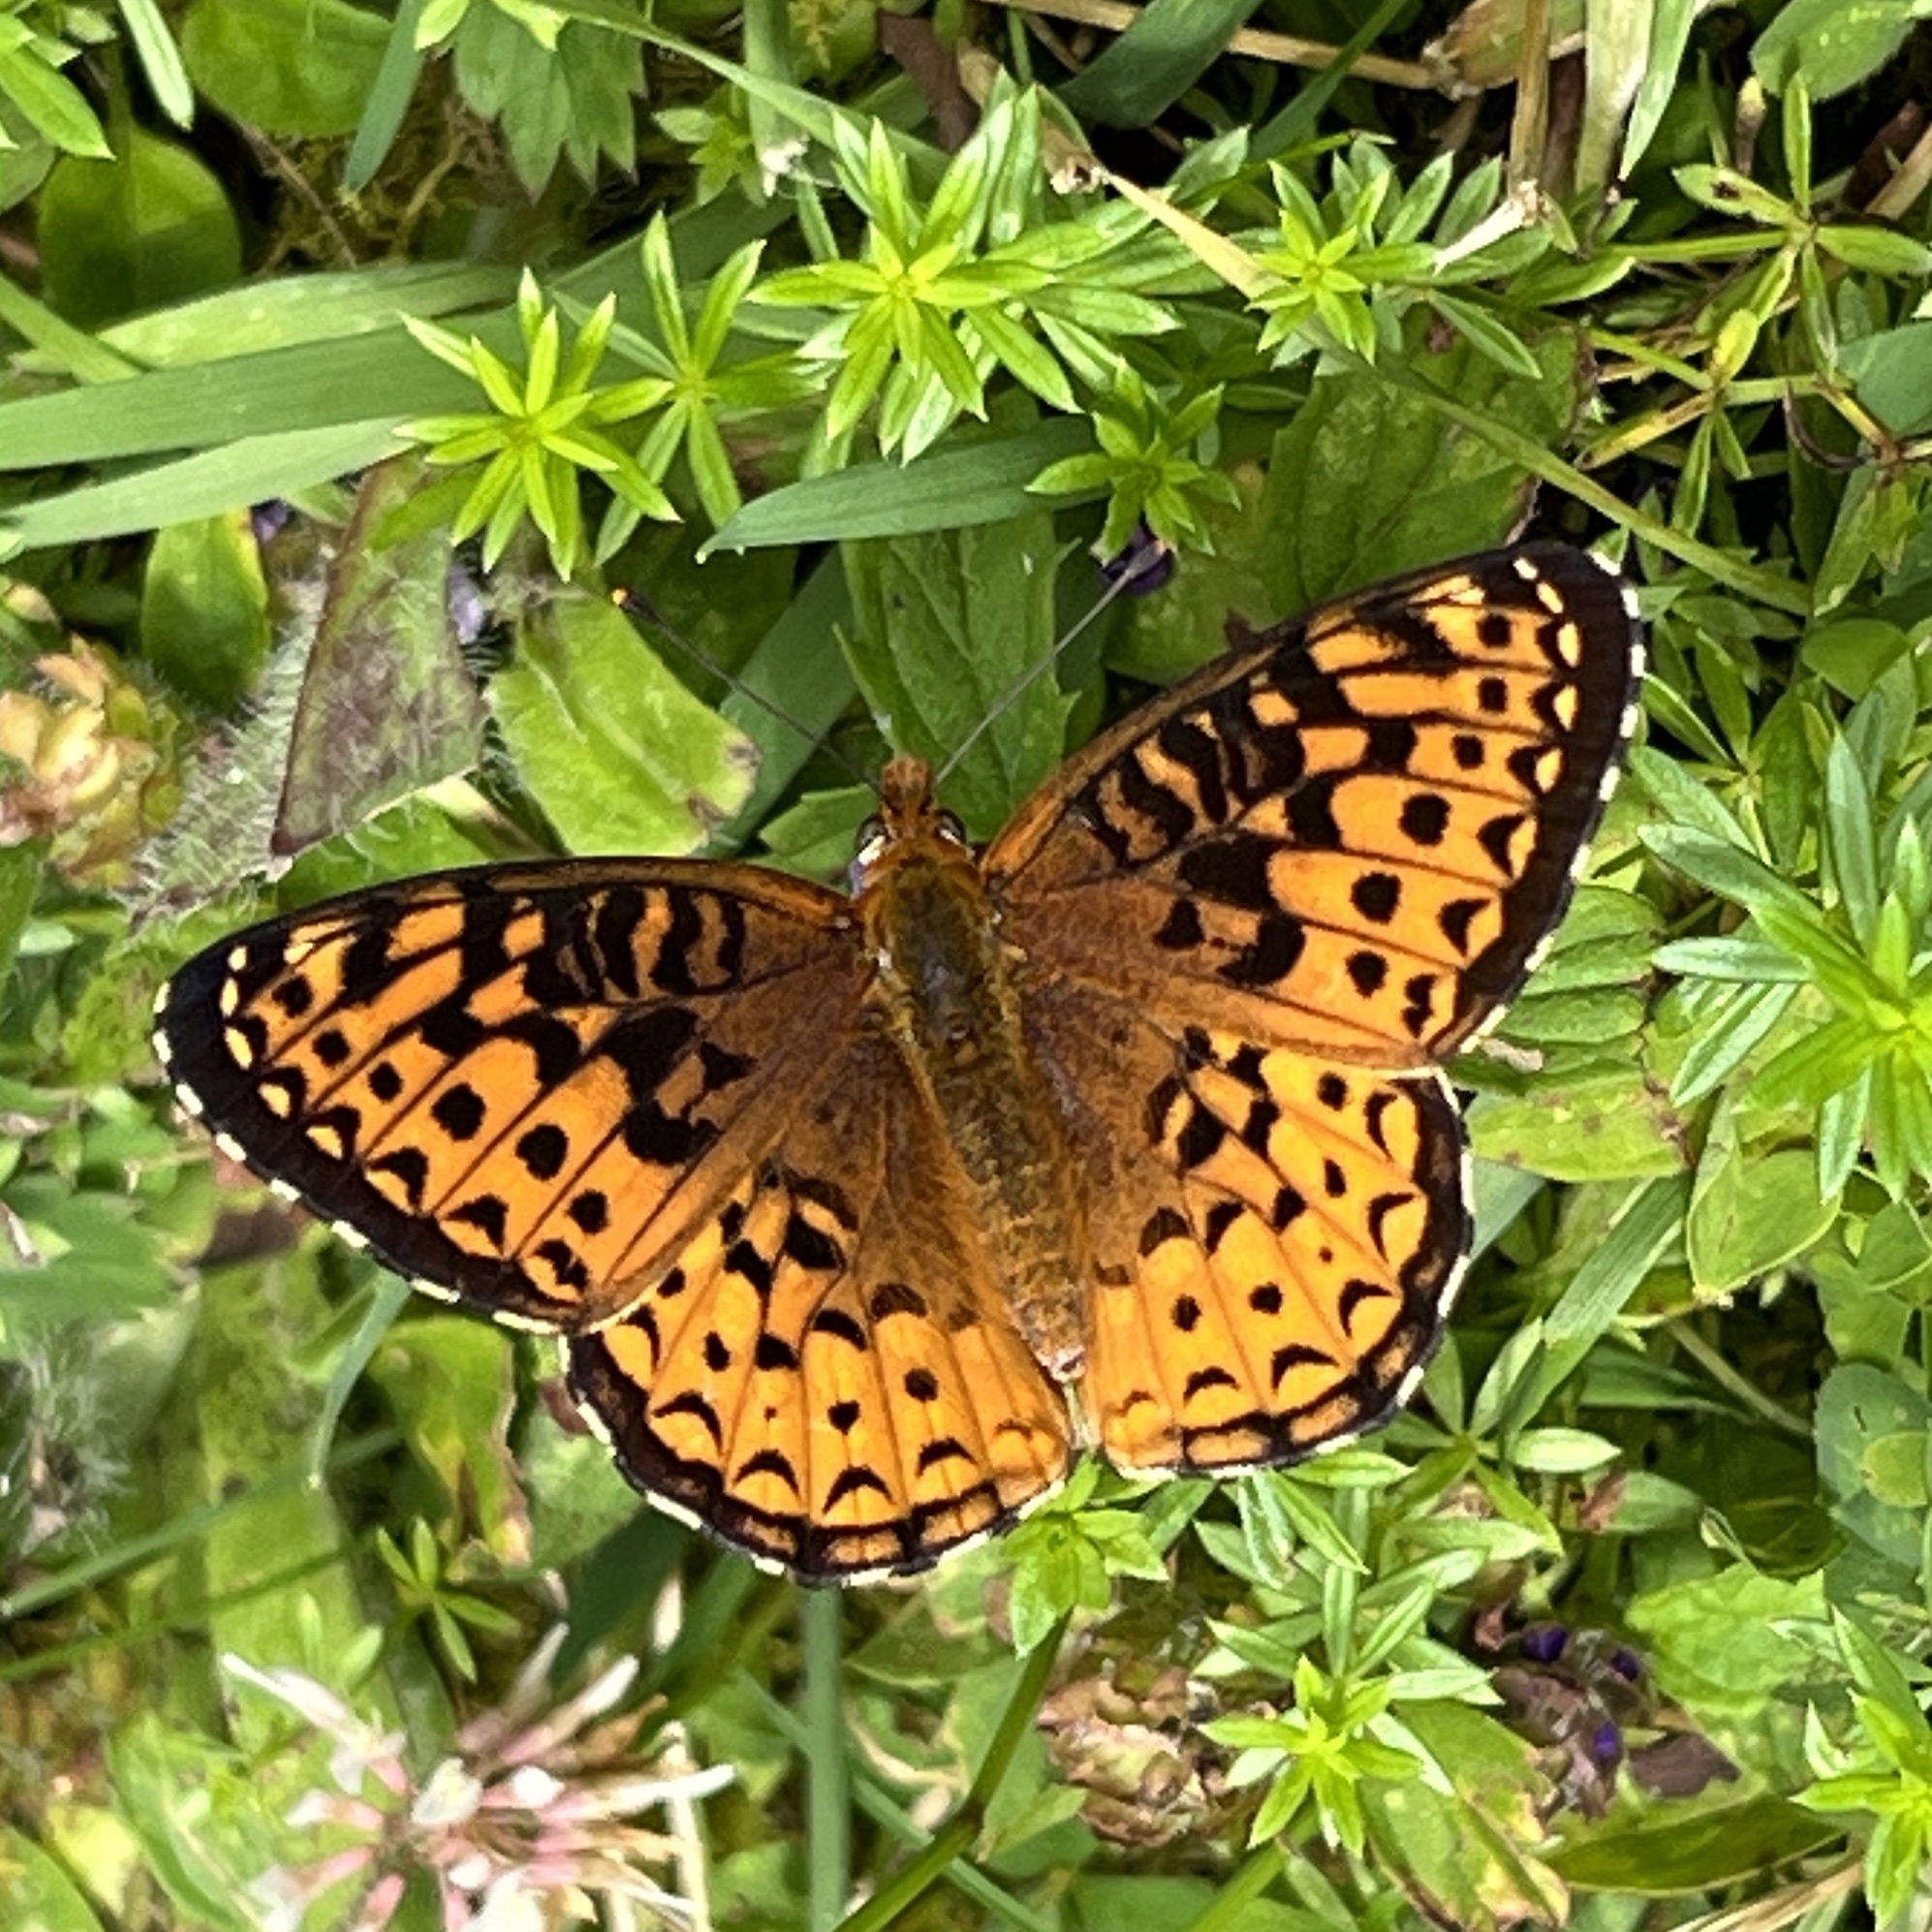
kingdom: Animalia
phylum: Arthropoda
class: Insecta
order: Lepidoptera
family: Nymphalidae
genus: Speyeria
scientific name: Speyeria atlantis
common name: Atlantis fritillary
